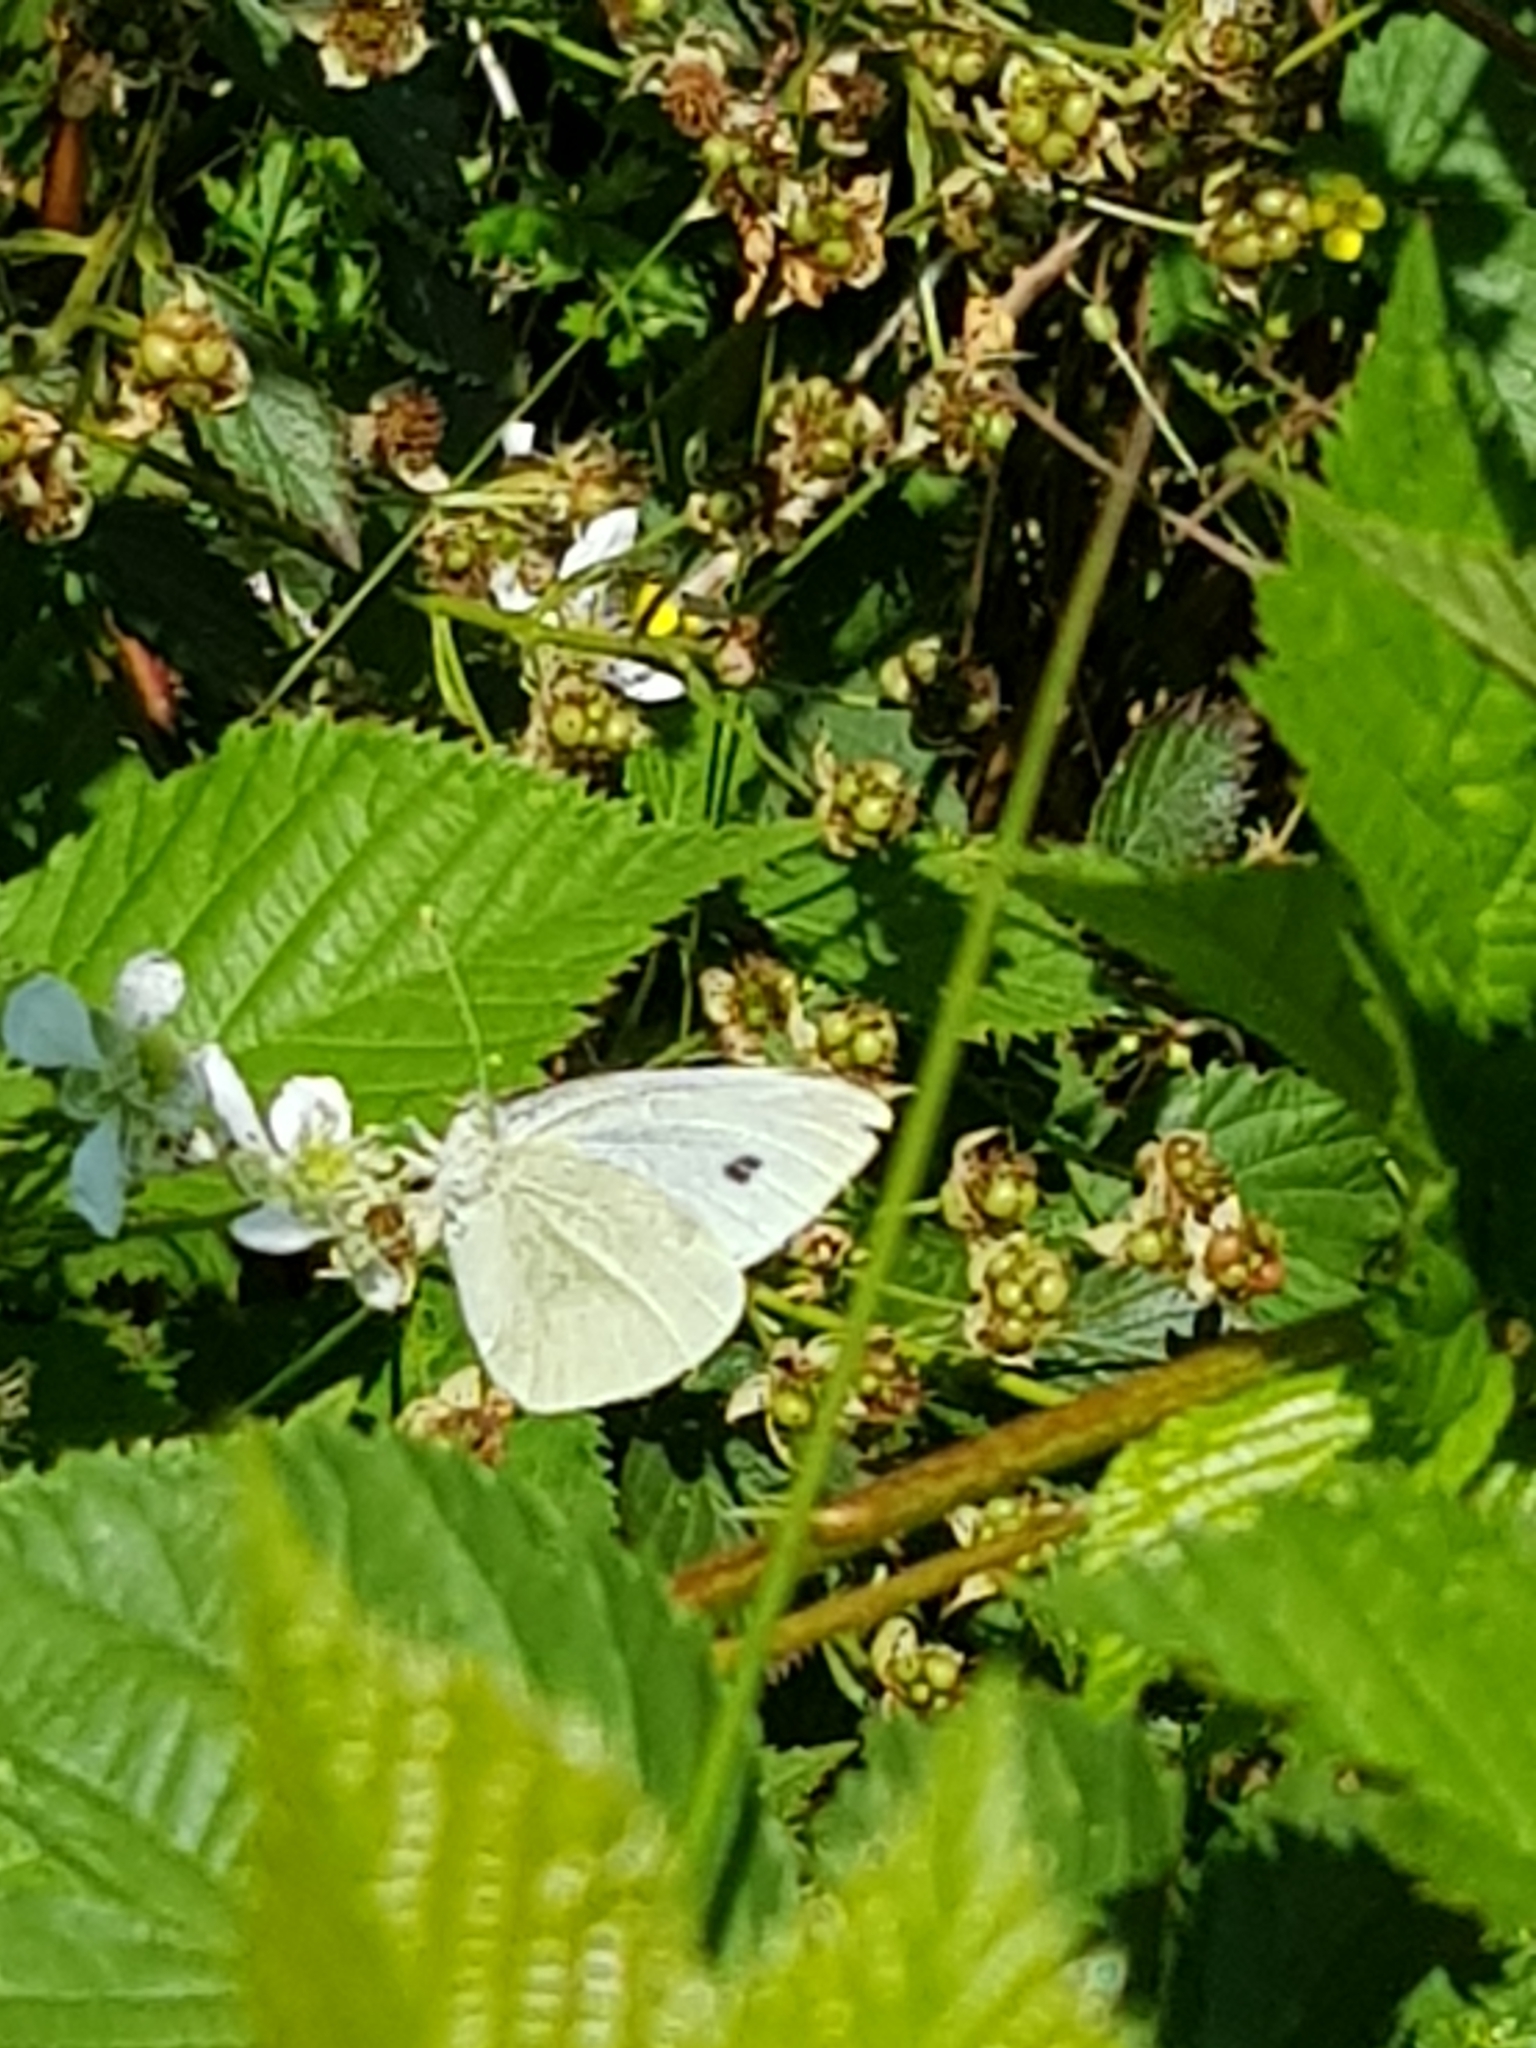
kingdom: Animalia
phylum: Arthropoda
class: Insecta
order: Lepidoptera
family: Pieridae
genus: Pieris
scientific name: Pieris rapae
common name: Small white
